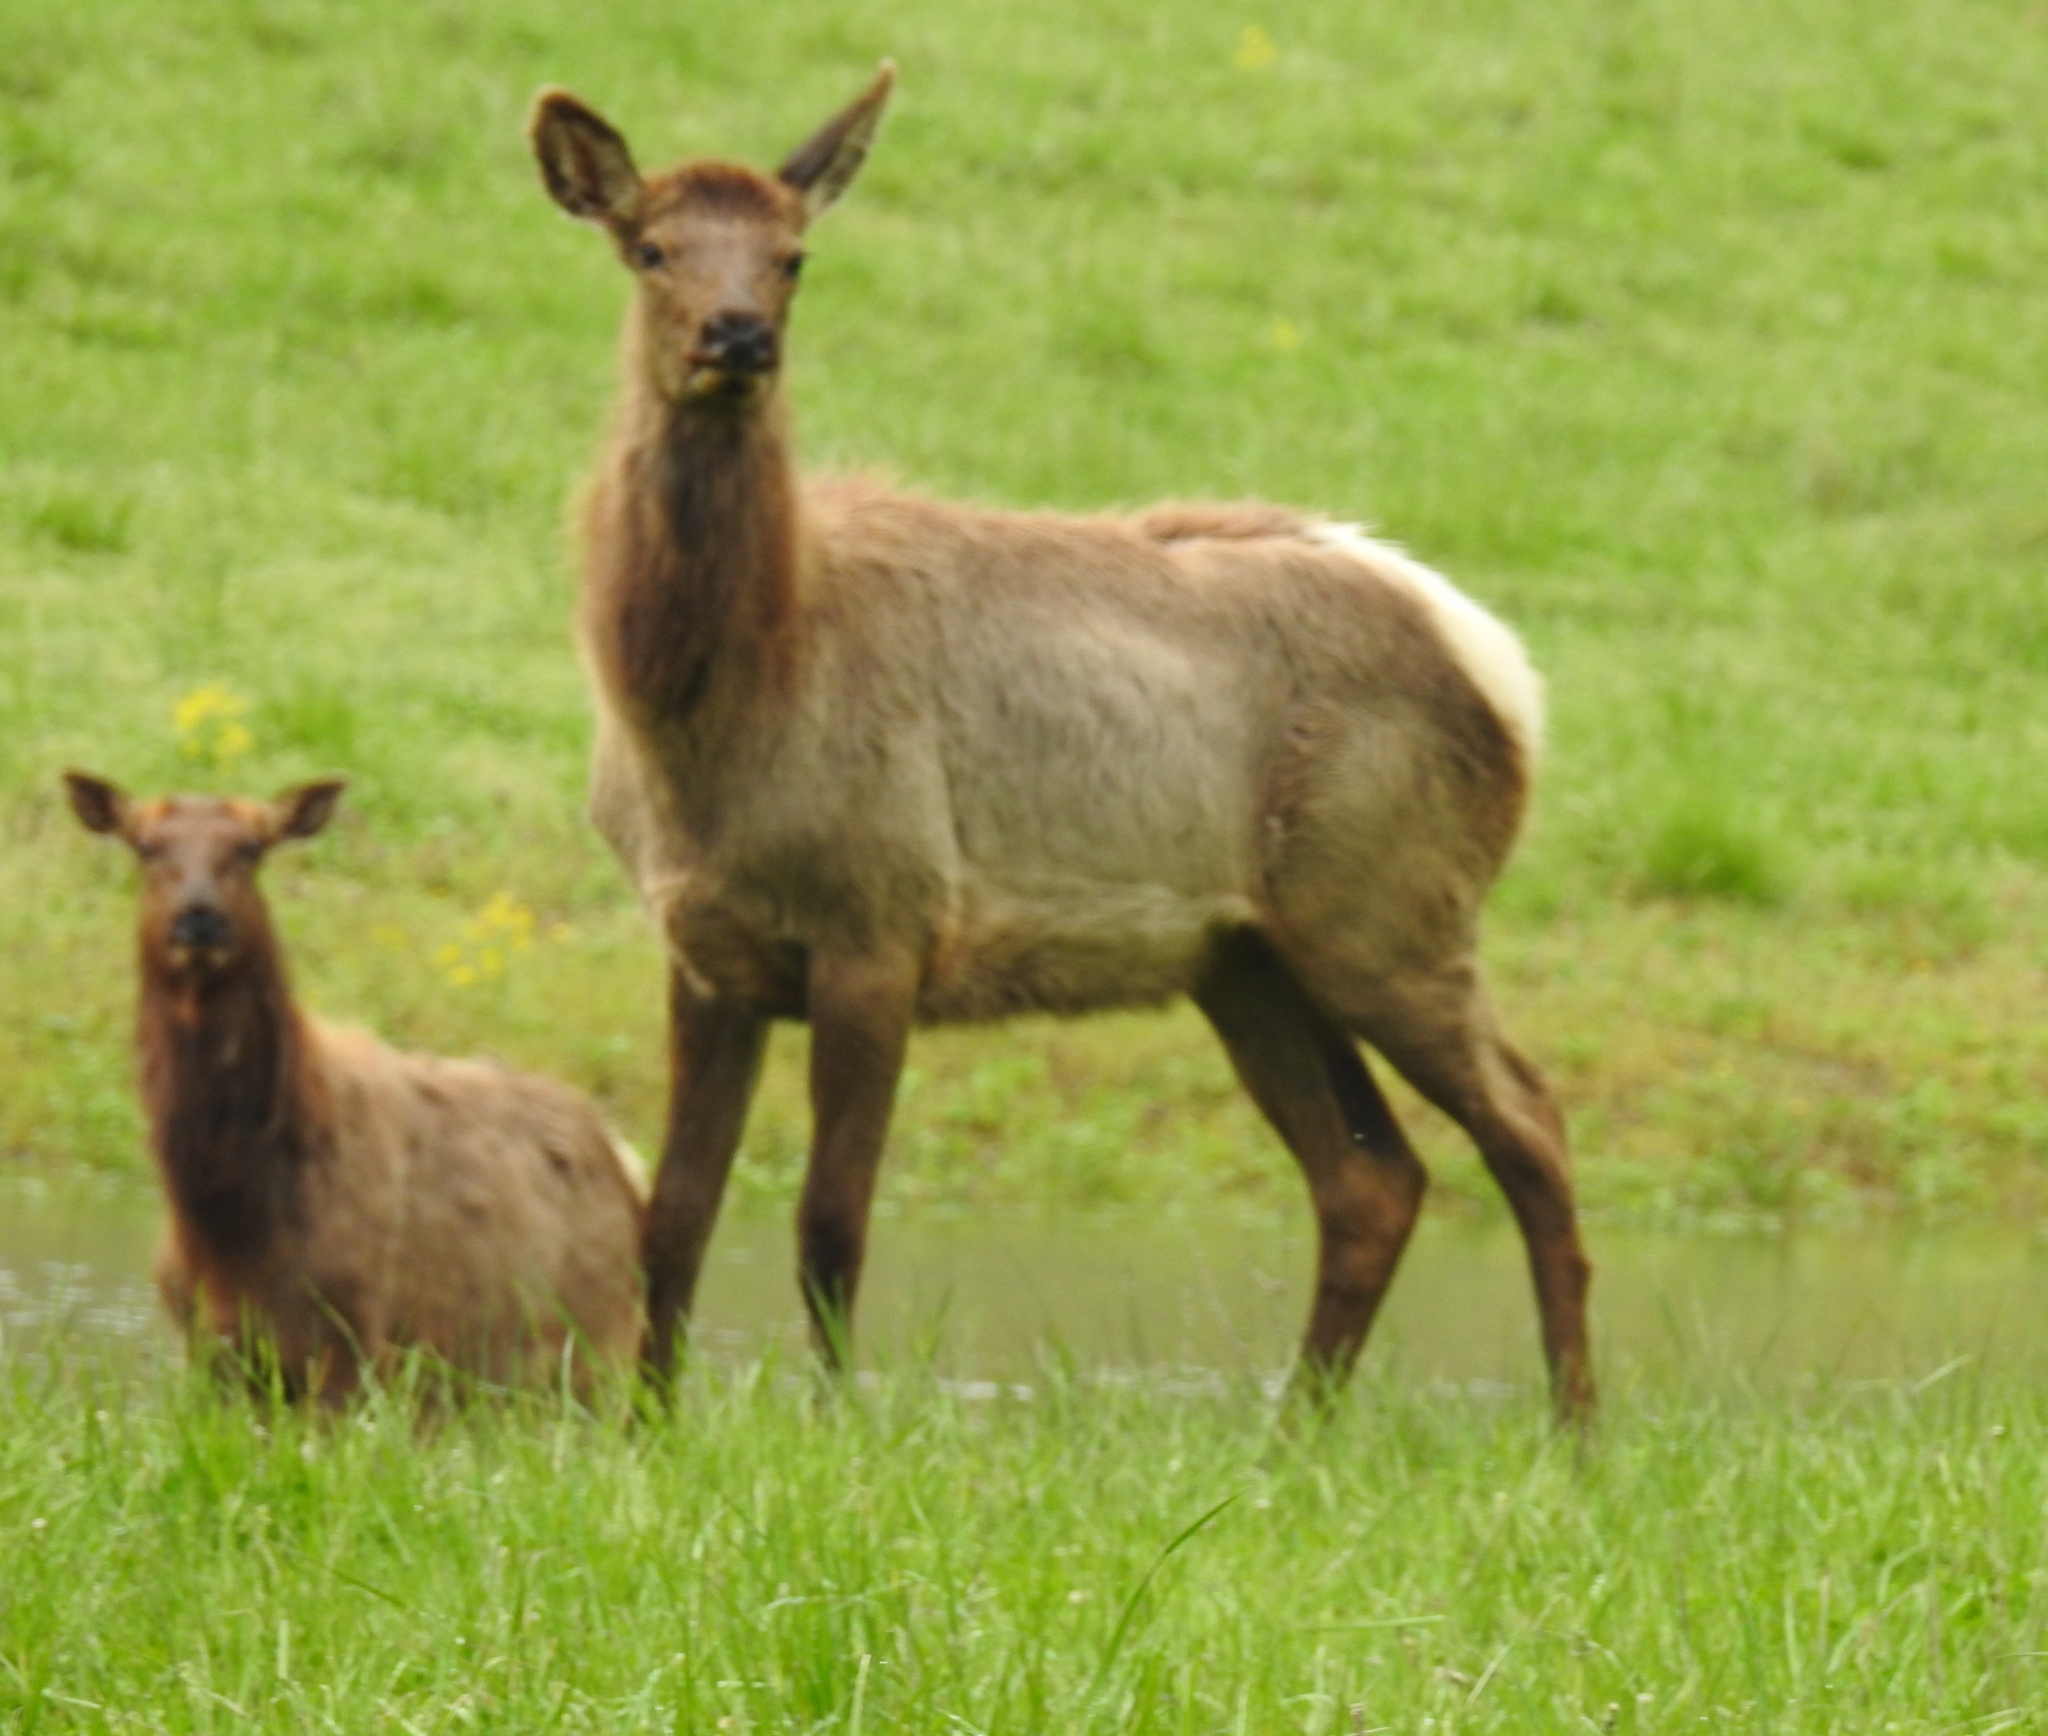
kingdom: Animalia
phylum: Chordata
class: Mammalia
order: Artiodactyla
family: Cervidae
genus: Cervus
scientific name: Cervus elaphus
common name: Red deer
